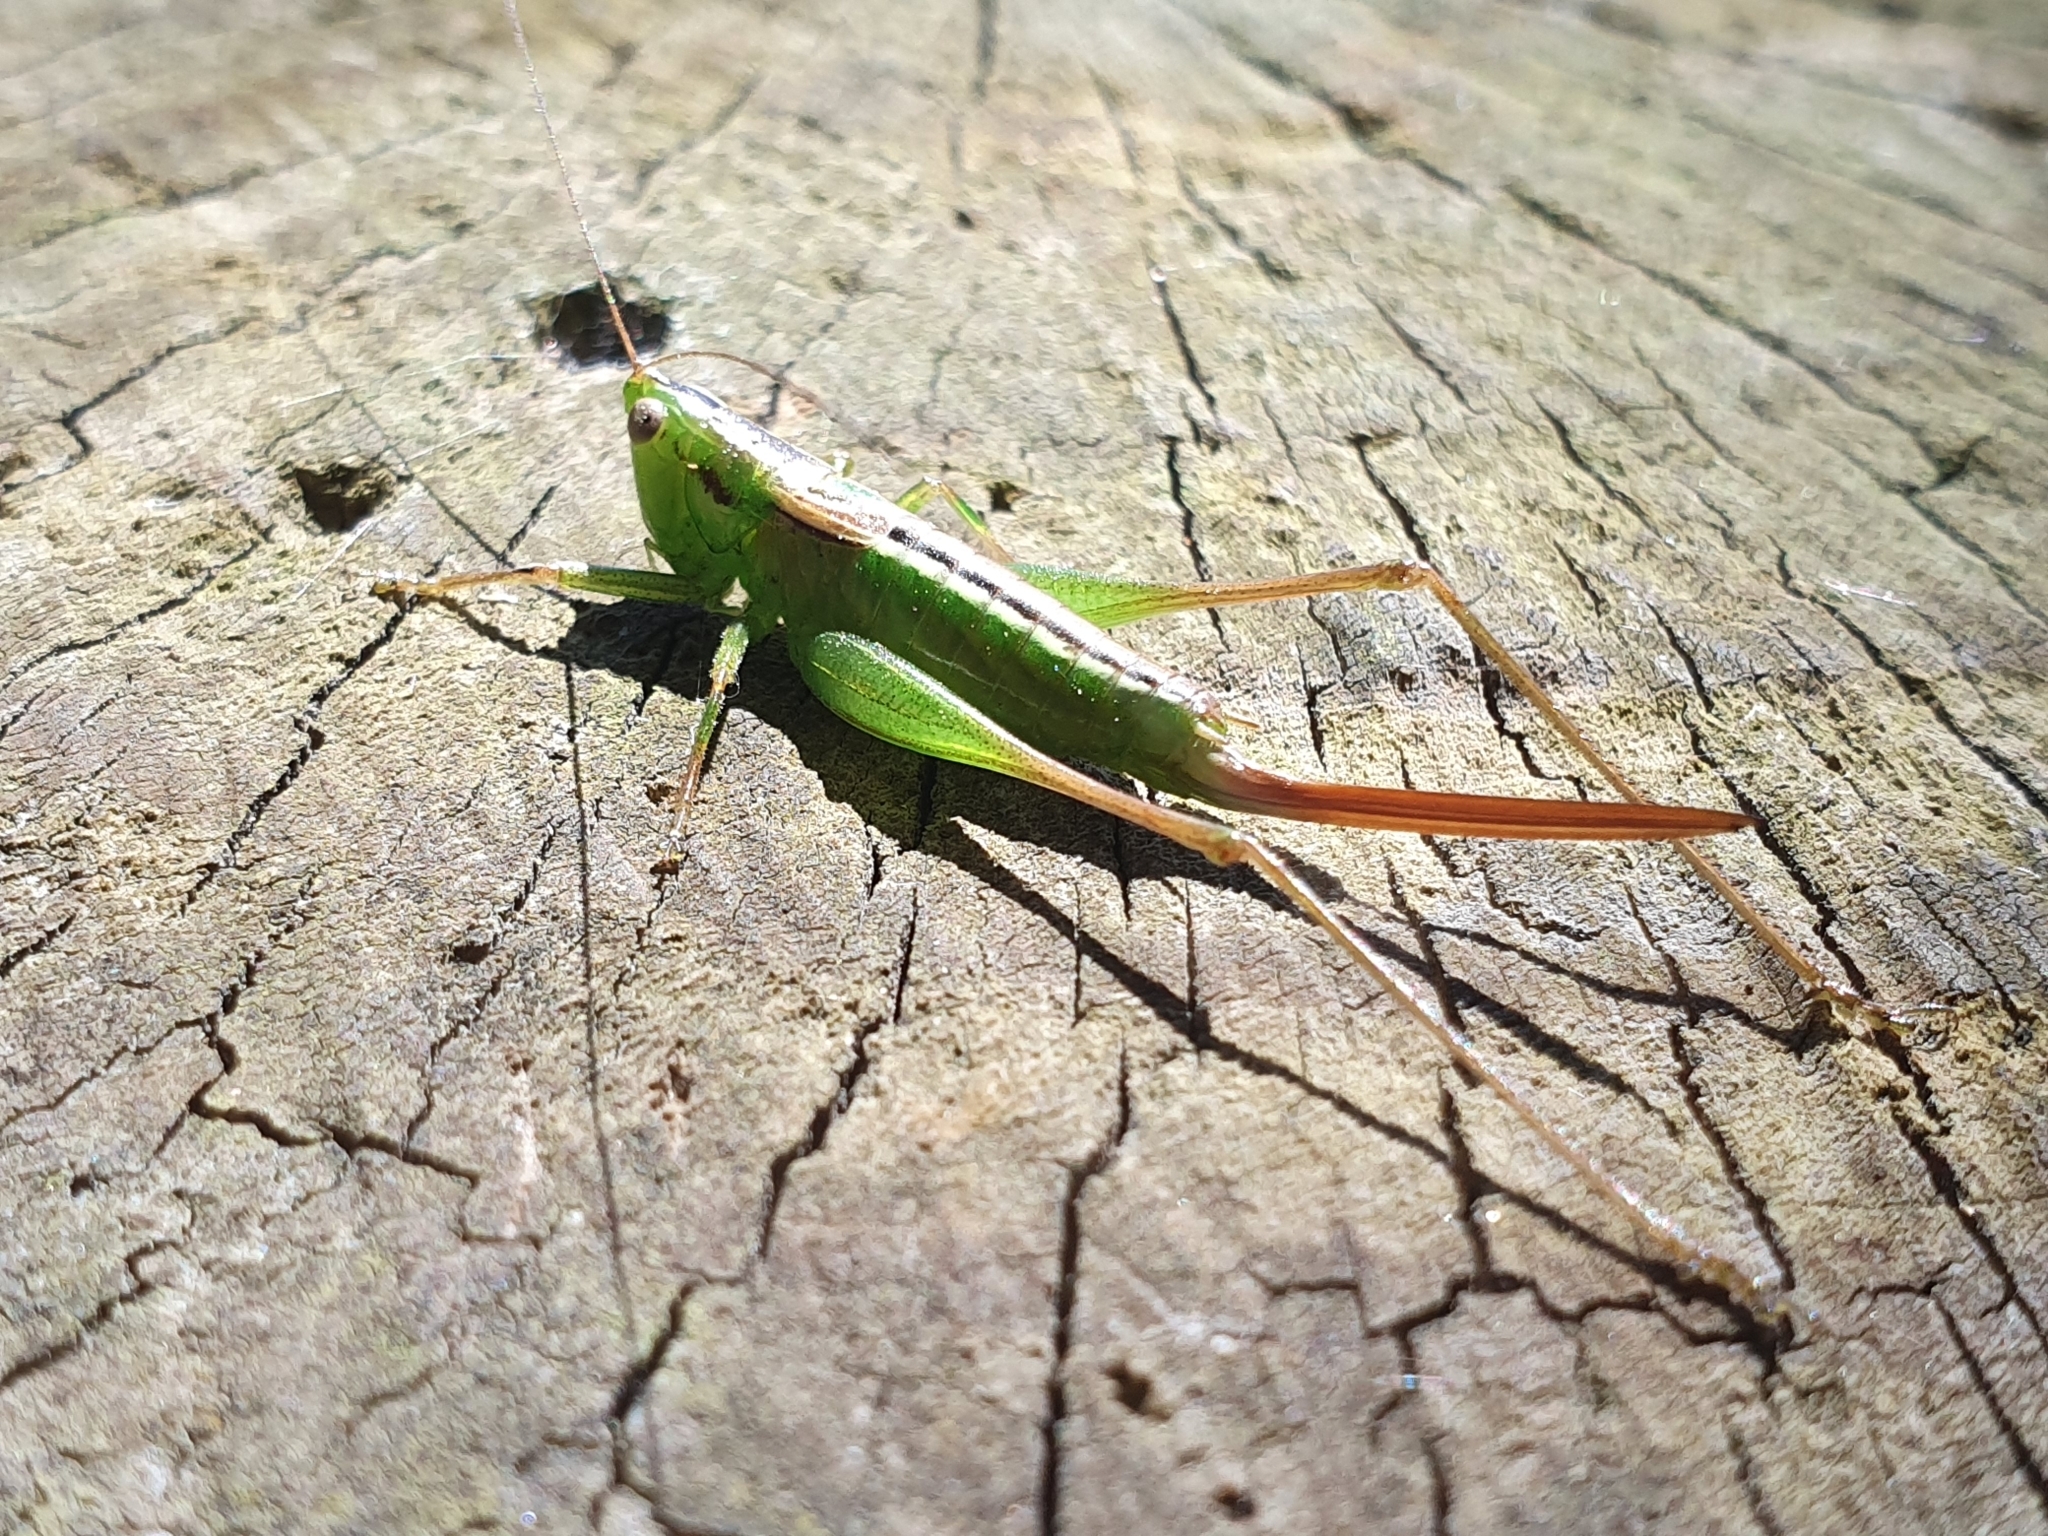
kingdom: Animalia
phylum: Arthropoda
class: Insecta
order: Orthoptera
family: Tettigoniidae
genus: Conocephalus
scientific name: Conocephalus bilineatus
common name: Small meadow katydid
